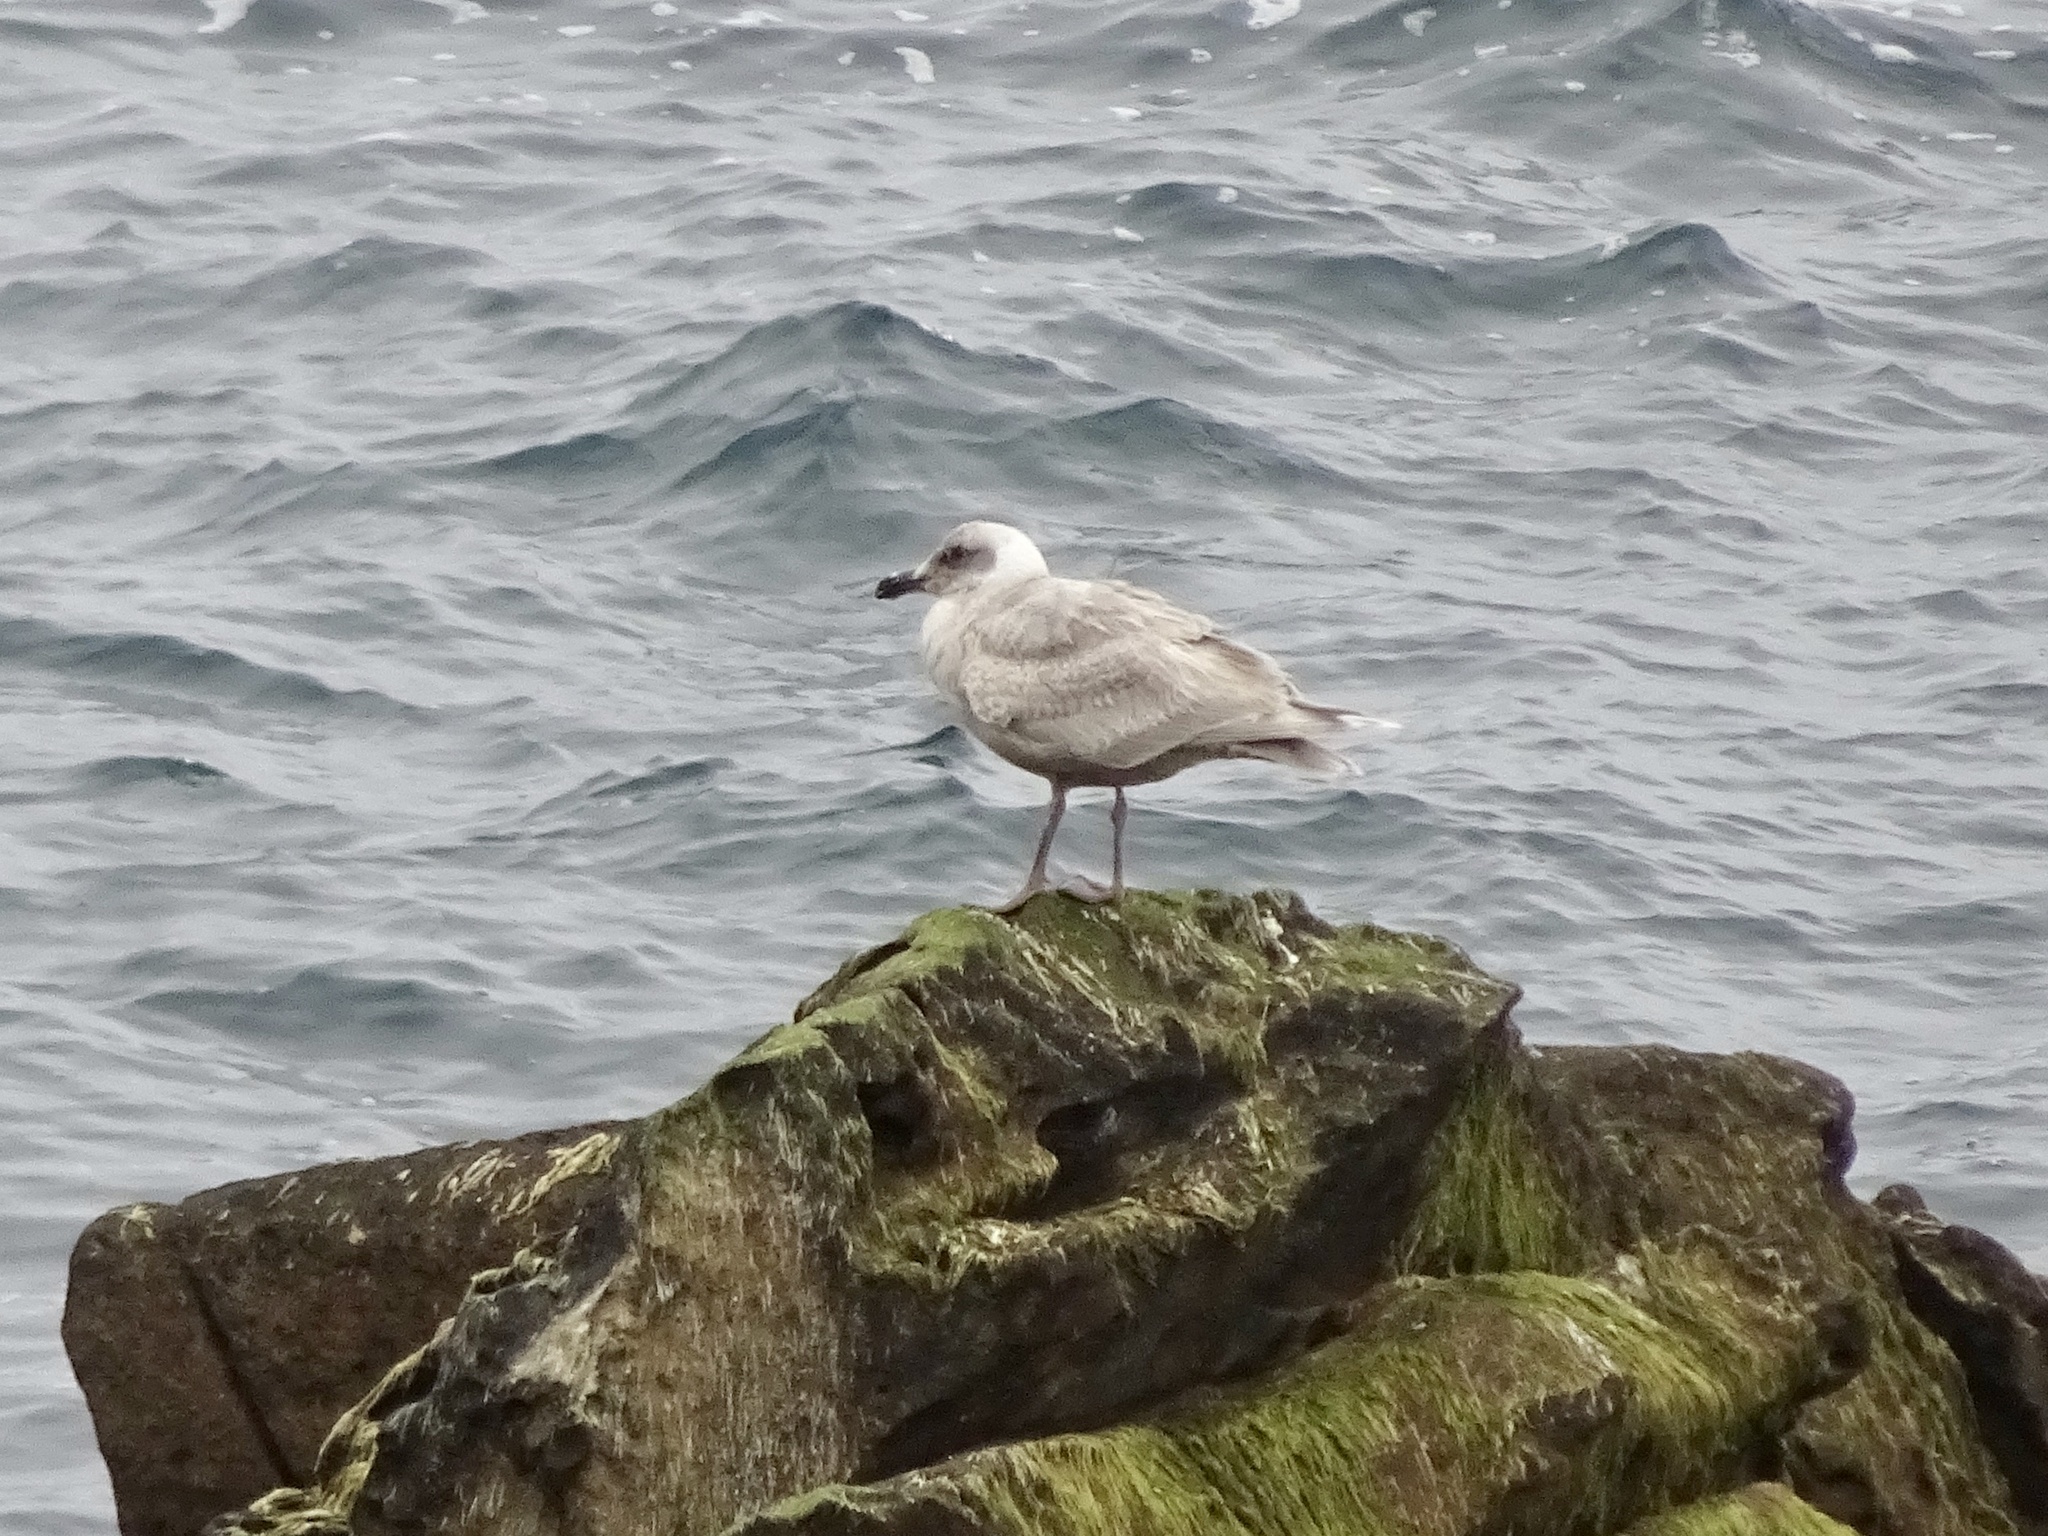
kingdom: Animalia
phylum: Chordata
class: Aves
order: Charadriiformes
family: Laridae
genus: Larus
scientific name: Larus glaucescens
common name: Glaucous-winged gull
